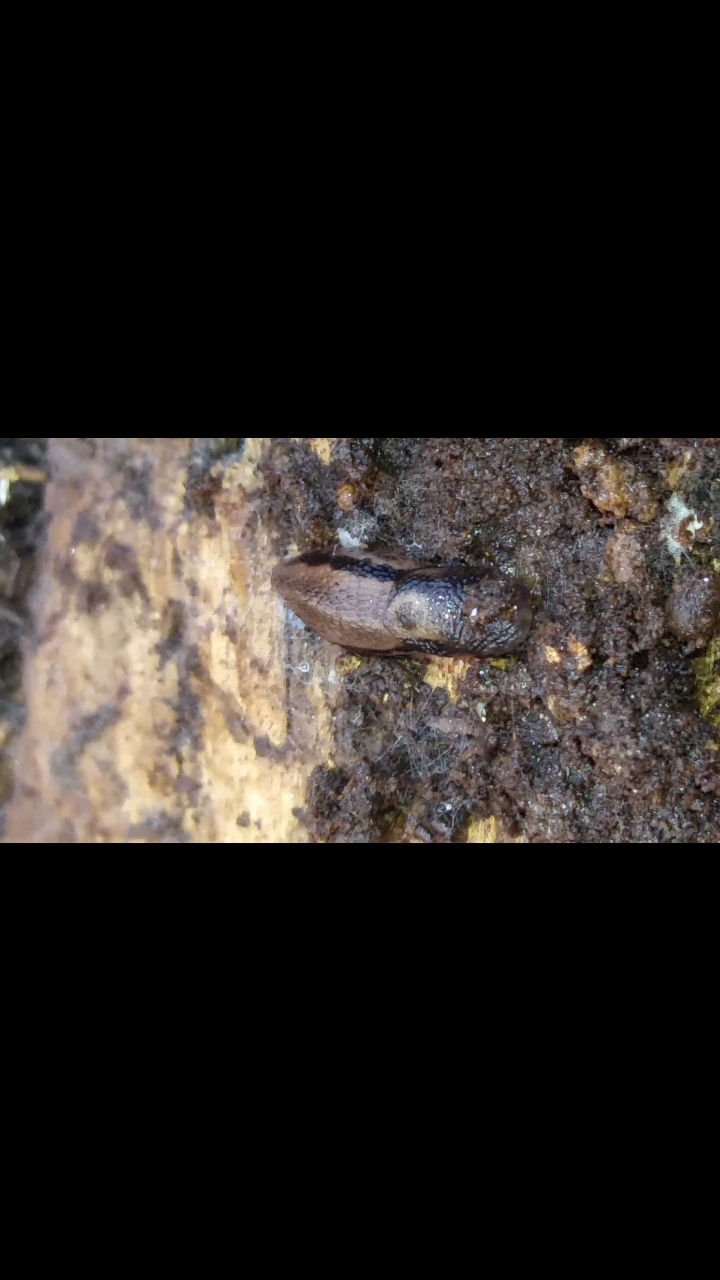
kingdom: Animalia
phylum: Mollusca
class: Gastropoda
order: Stylommatophora
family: Limacidae
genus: Limax
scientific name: Limax maximus
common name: Great grey slug
